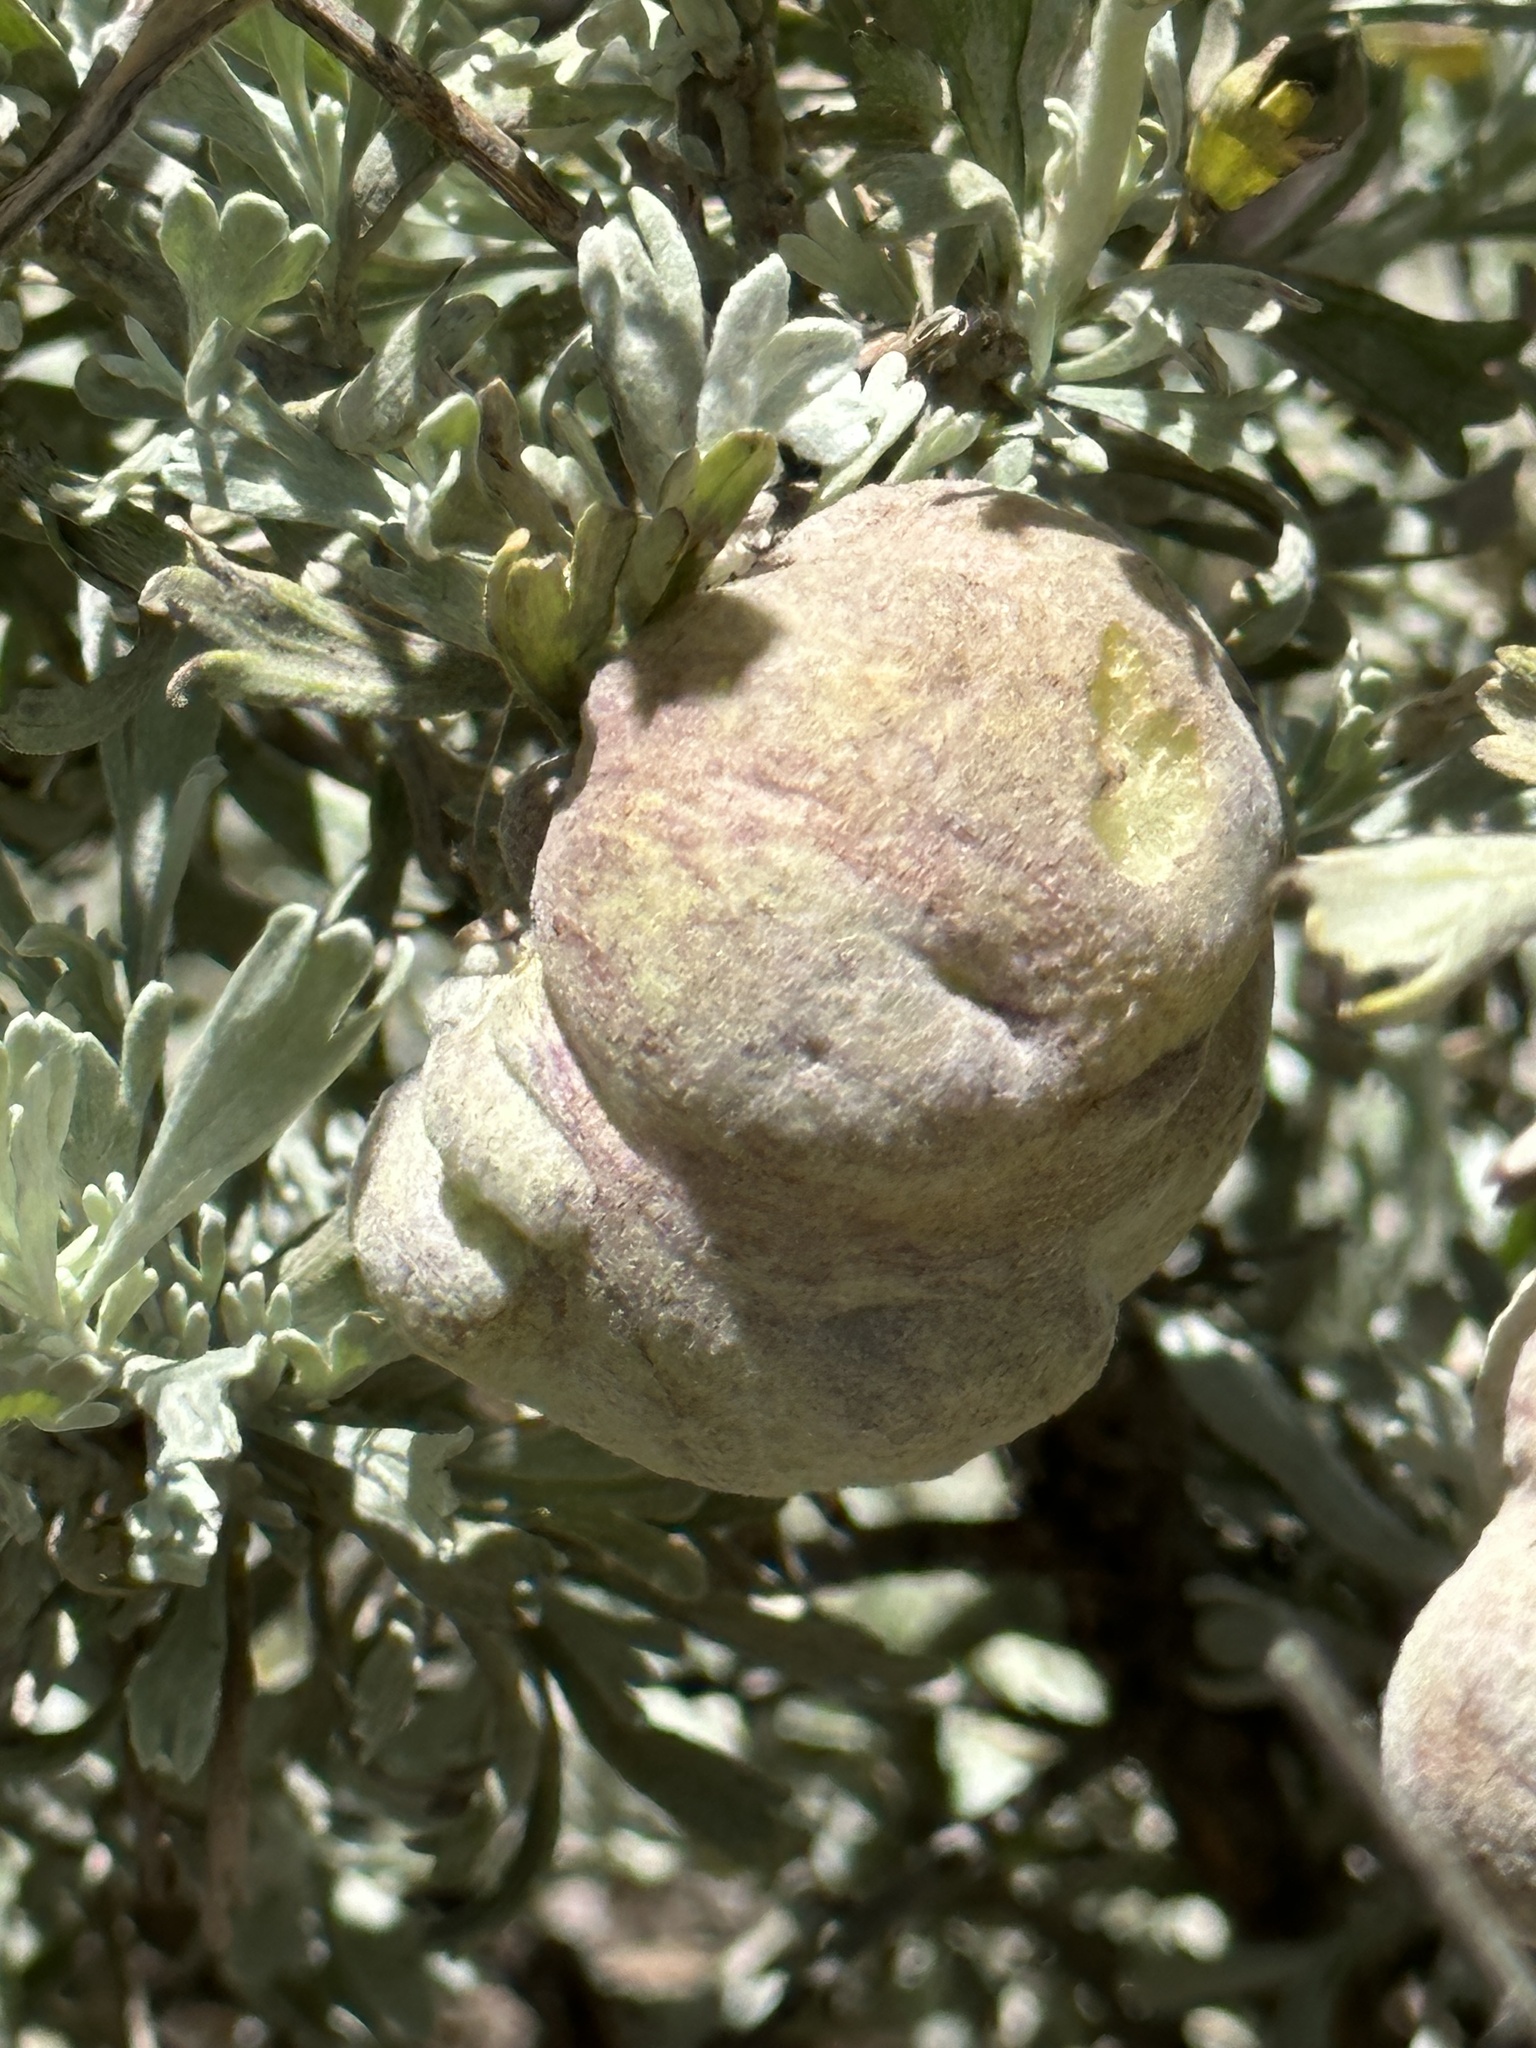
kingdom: Animalia
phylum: Arthropoda
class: Insecta
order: Diptera
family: Cecidomyiidae
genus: Rhopalomyia
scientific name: Rhopalomyia pomum
